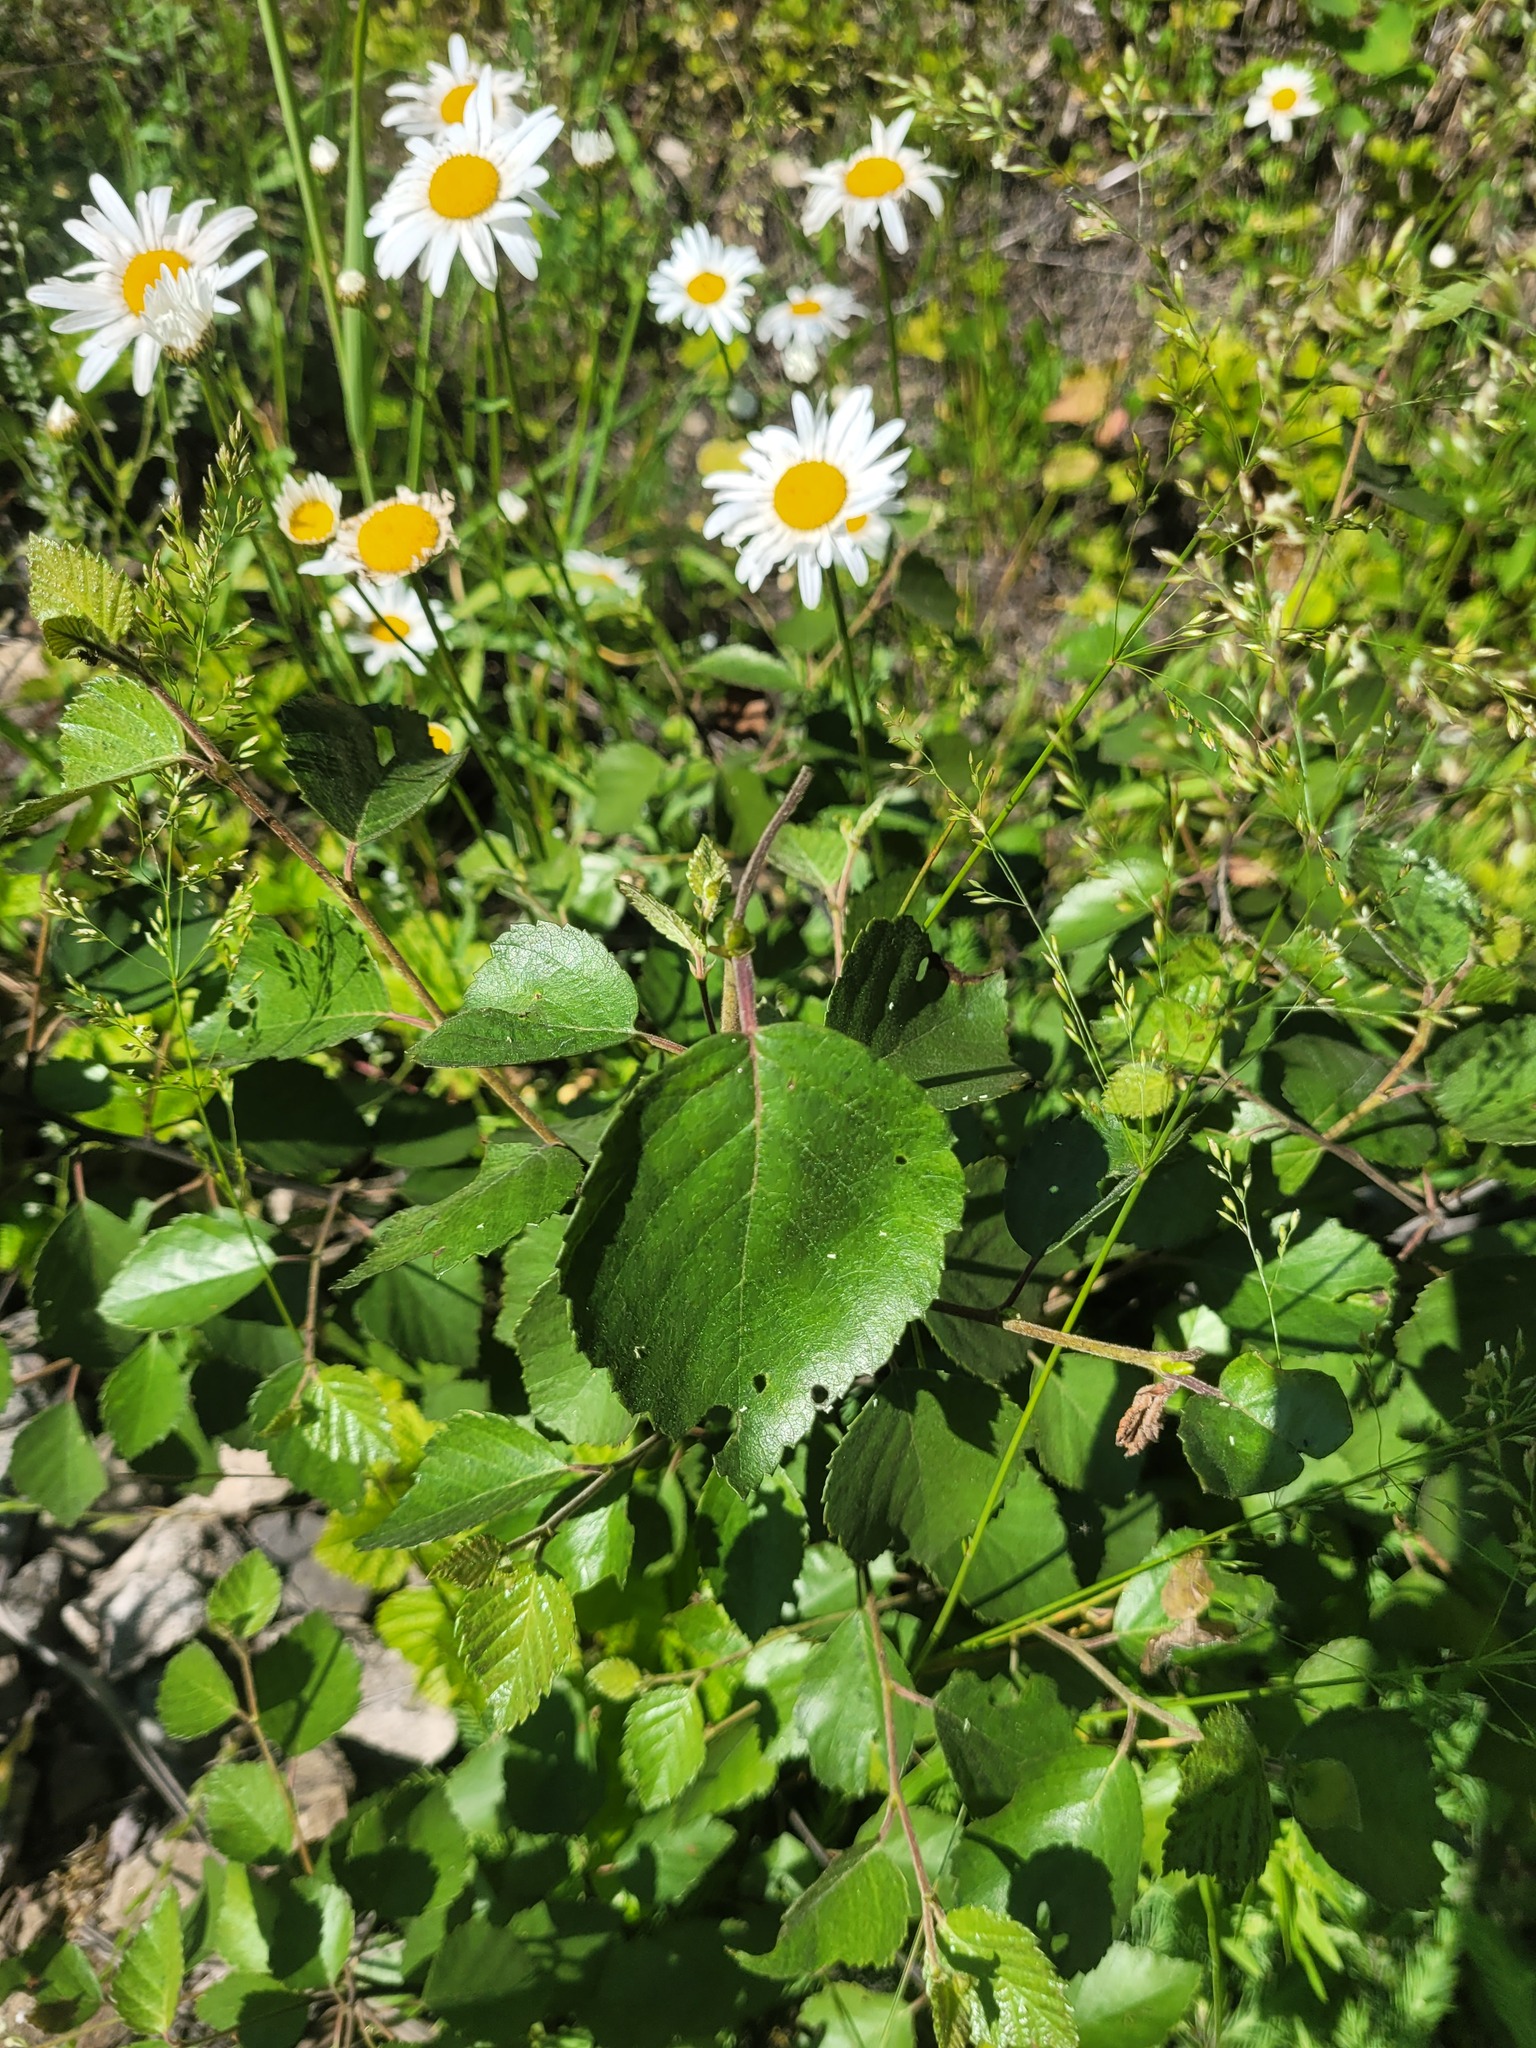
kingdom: Plantae
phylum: Tracheophyta
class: Magnoliopsida
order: Fagales
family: Betulaceae
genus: Betula
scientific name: Betula pubescens
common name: Downy birch
